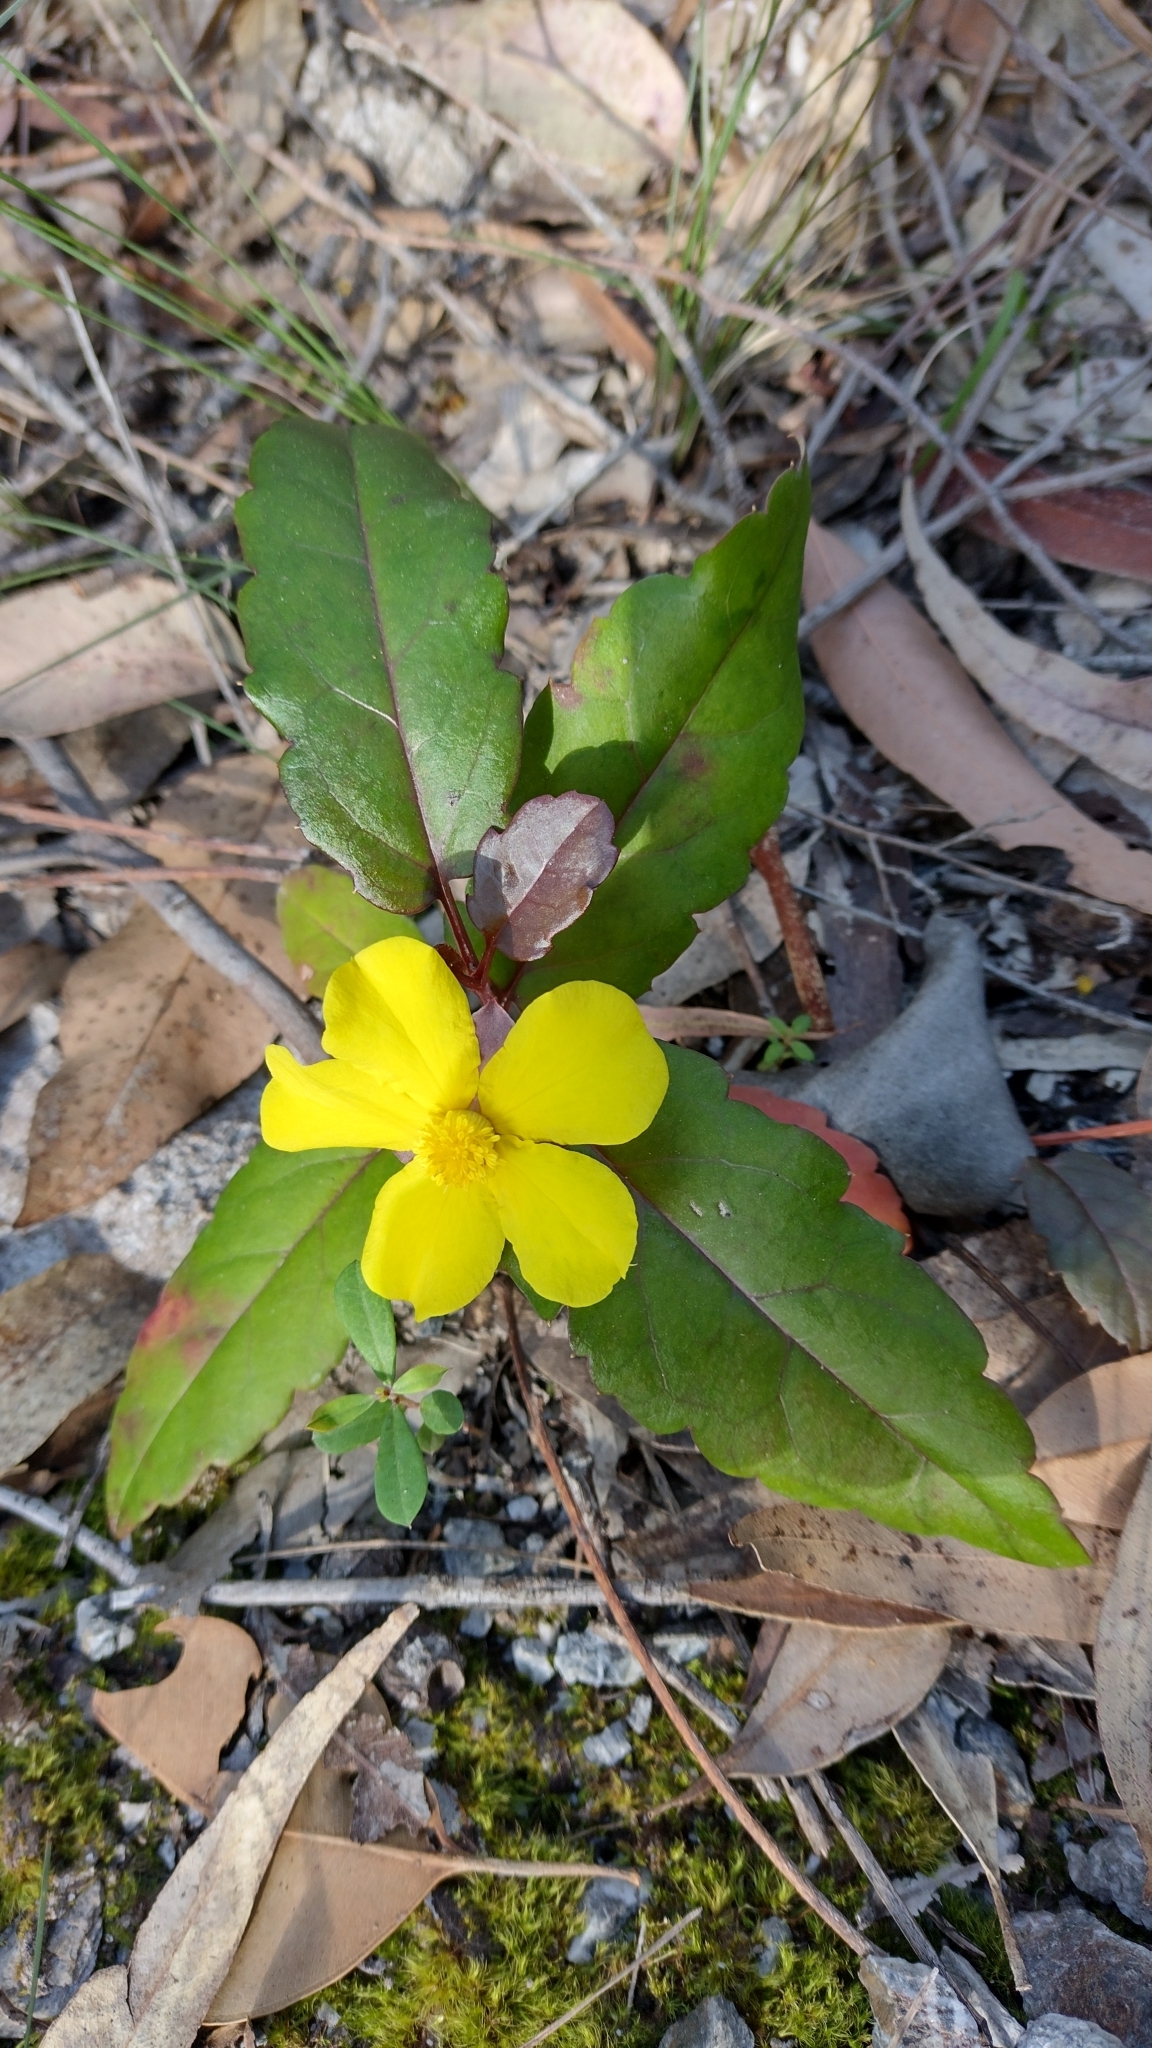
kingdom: Plantae
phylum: Tracheophyta
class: Magnoliopsida
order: Dilleniales
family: Dilleniaceae
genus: Hibbertia
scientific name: Hibbertia dentata
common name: Trailing guinea-flower
